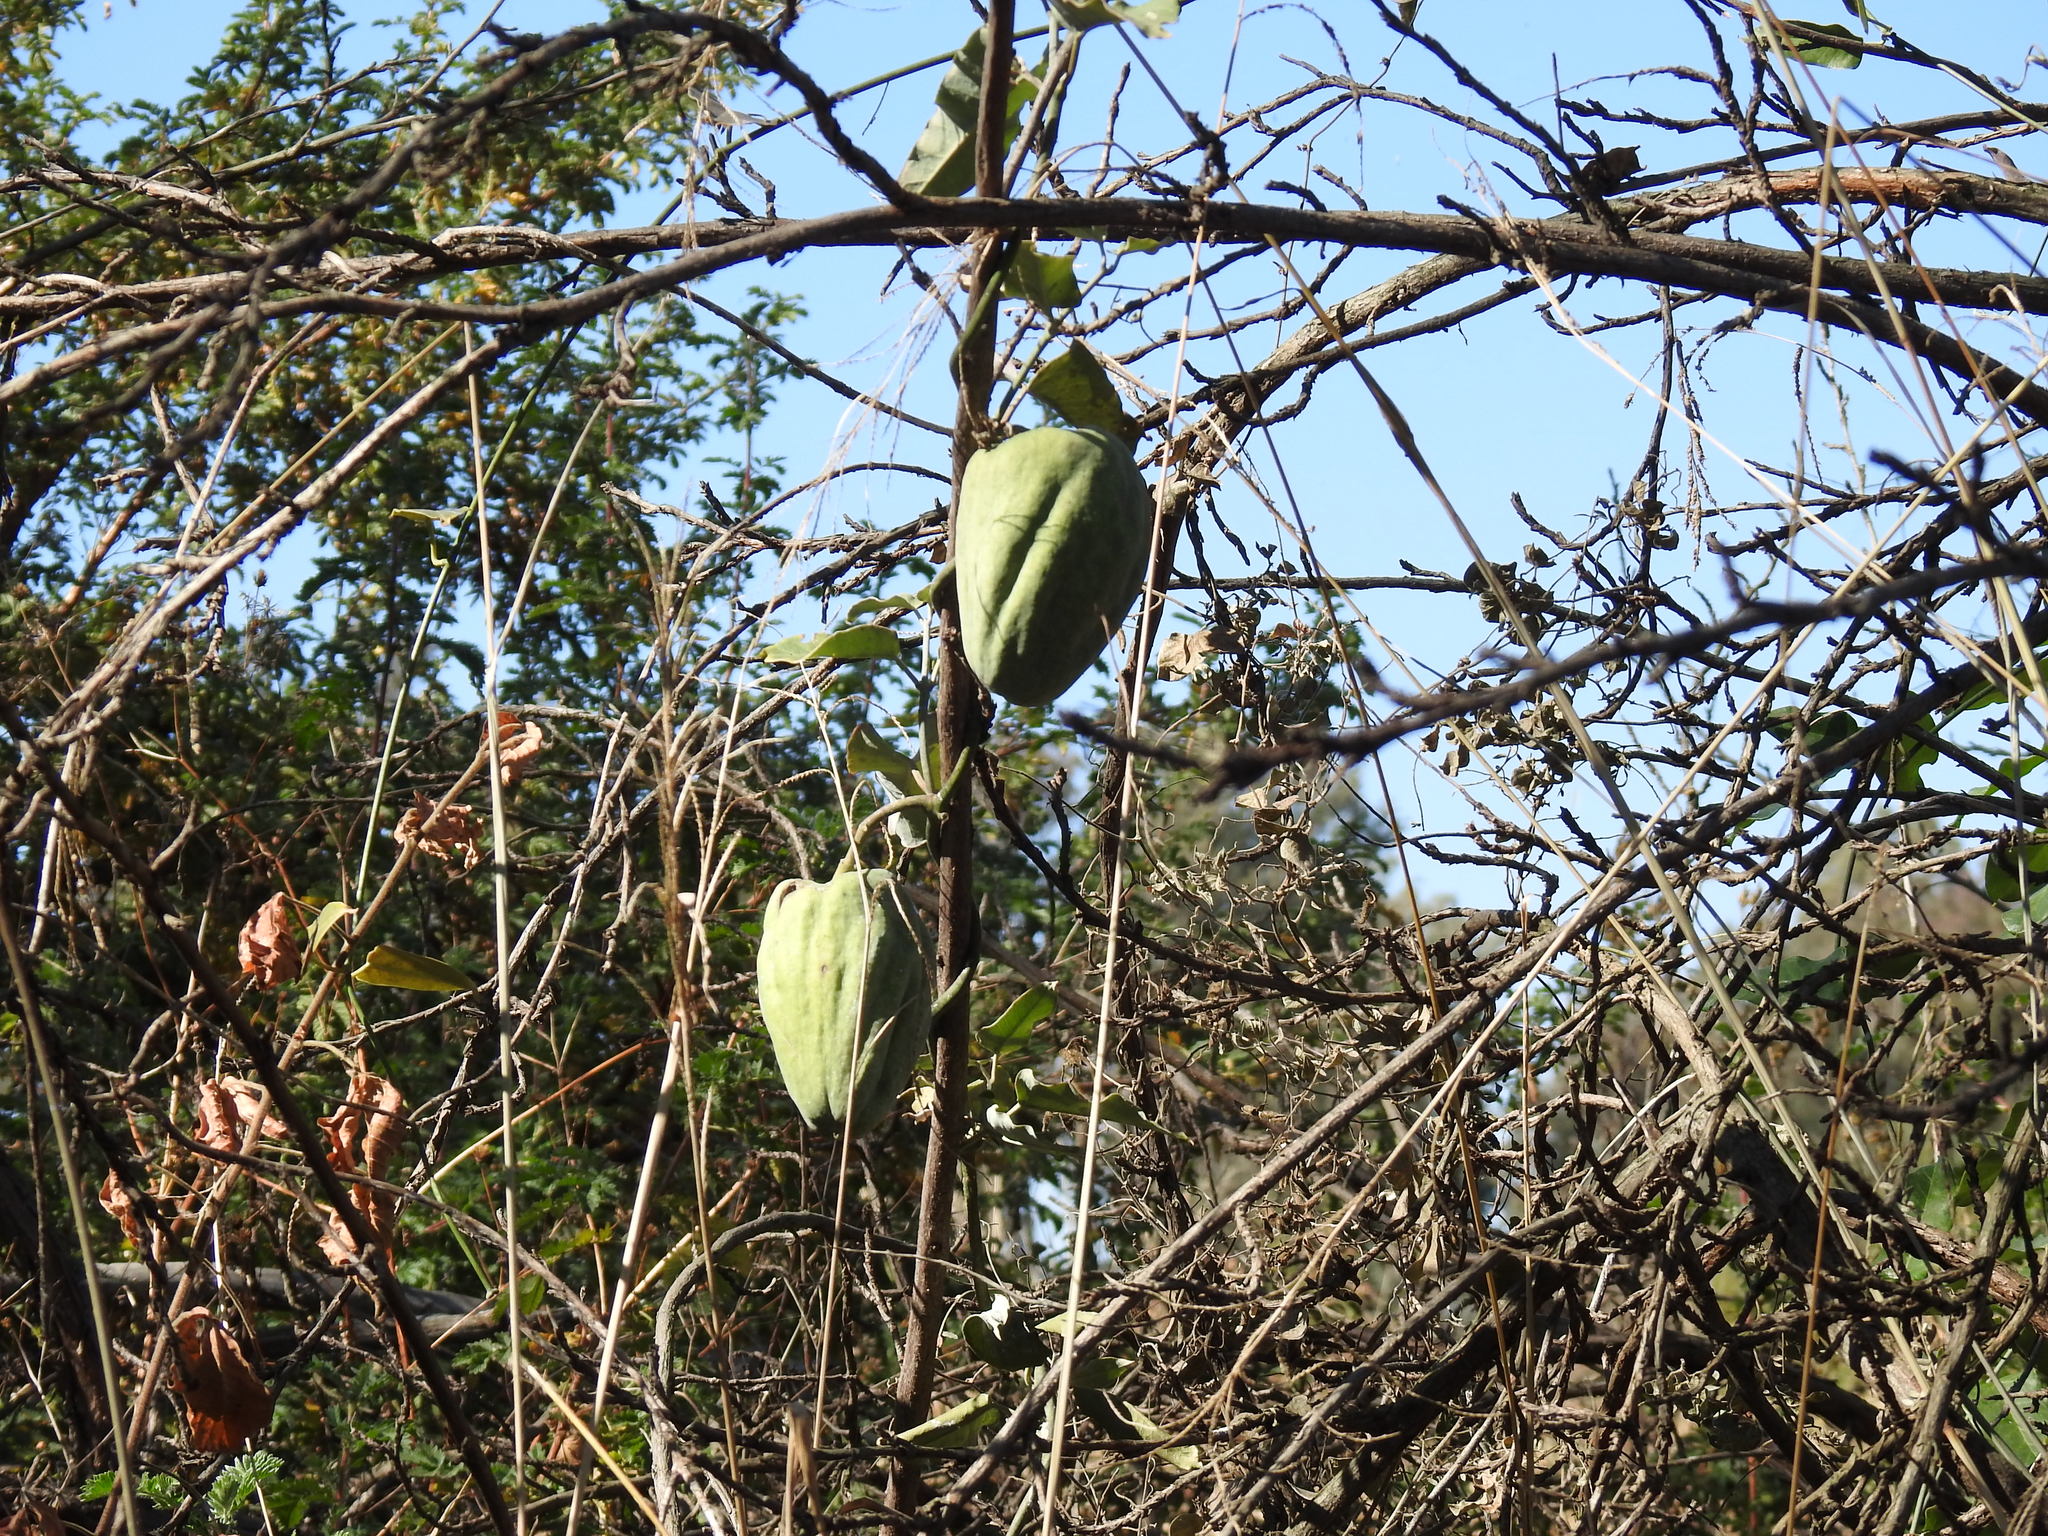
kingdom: Plantae
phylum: Tracheophyta
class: Magnoliopsida
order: Gentianales
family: Apocynaceae
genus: Araujia
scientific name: Araujia sericifera
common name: White bladderflower
